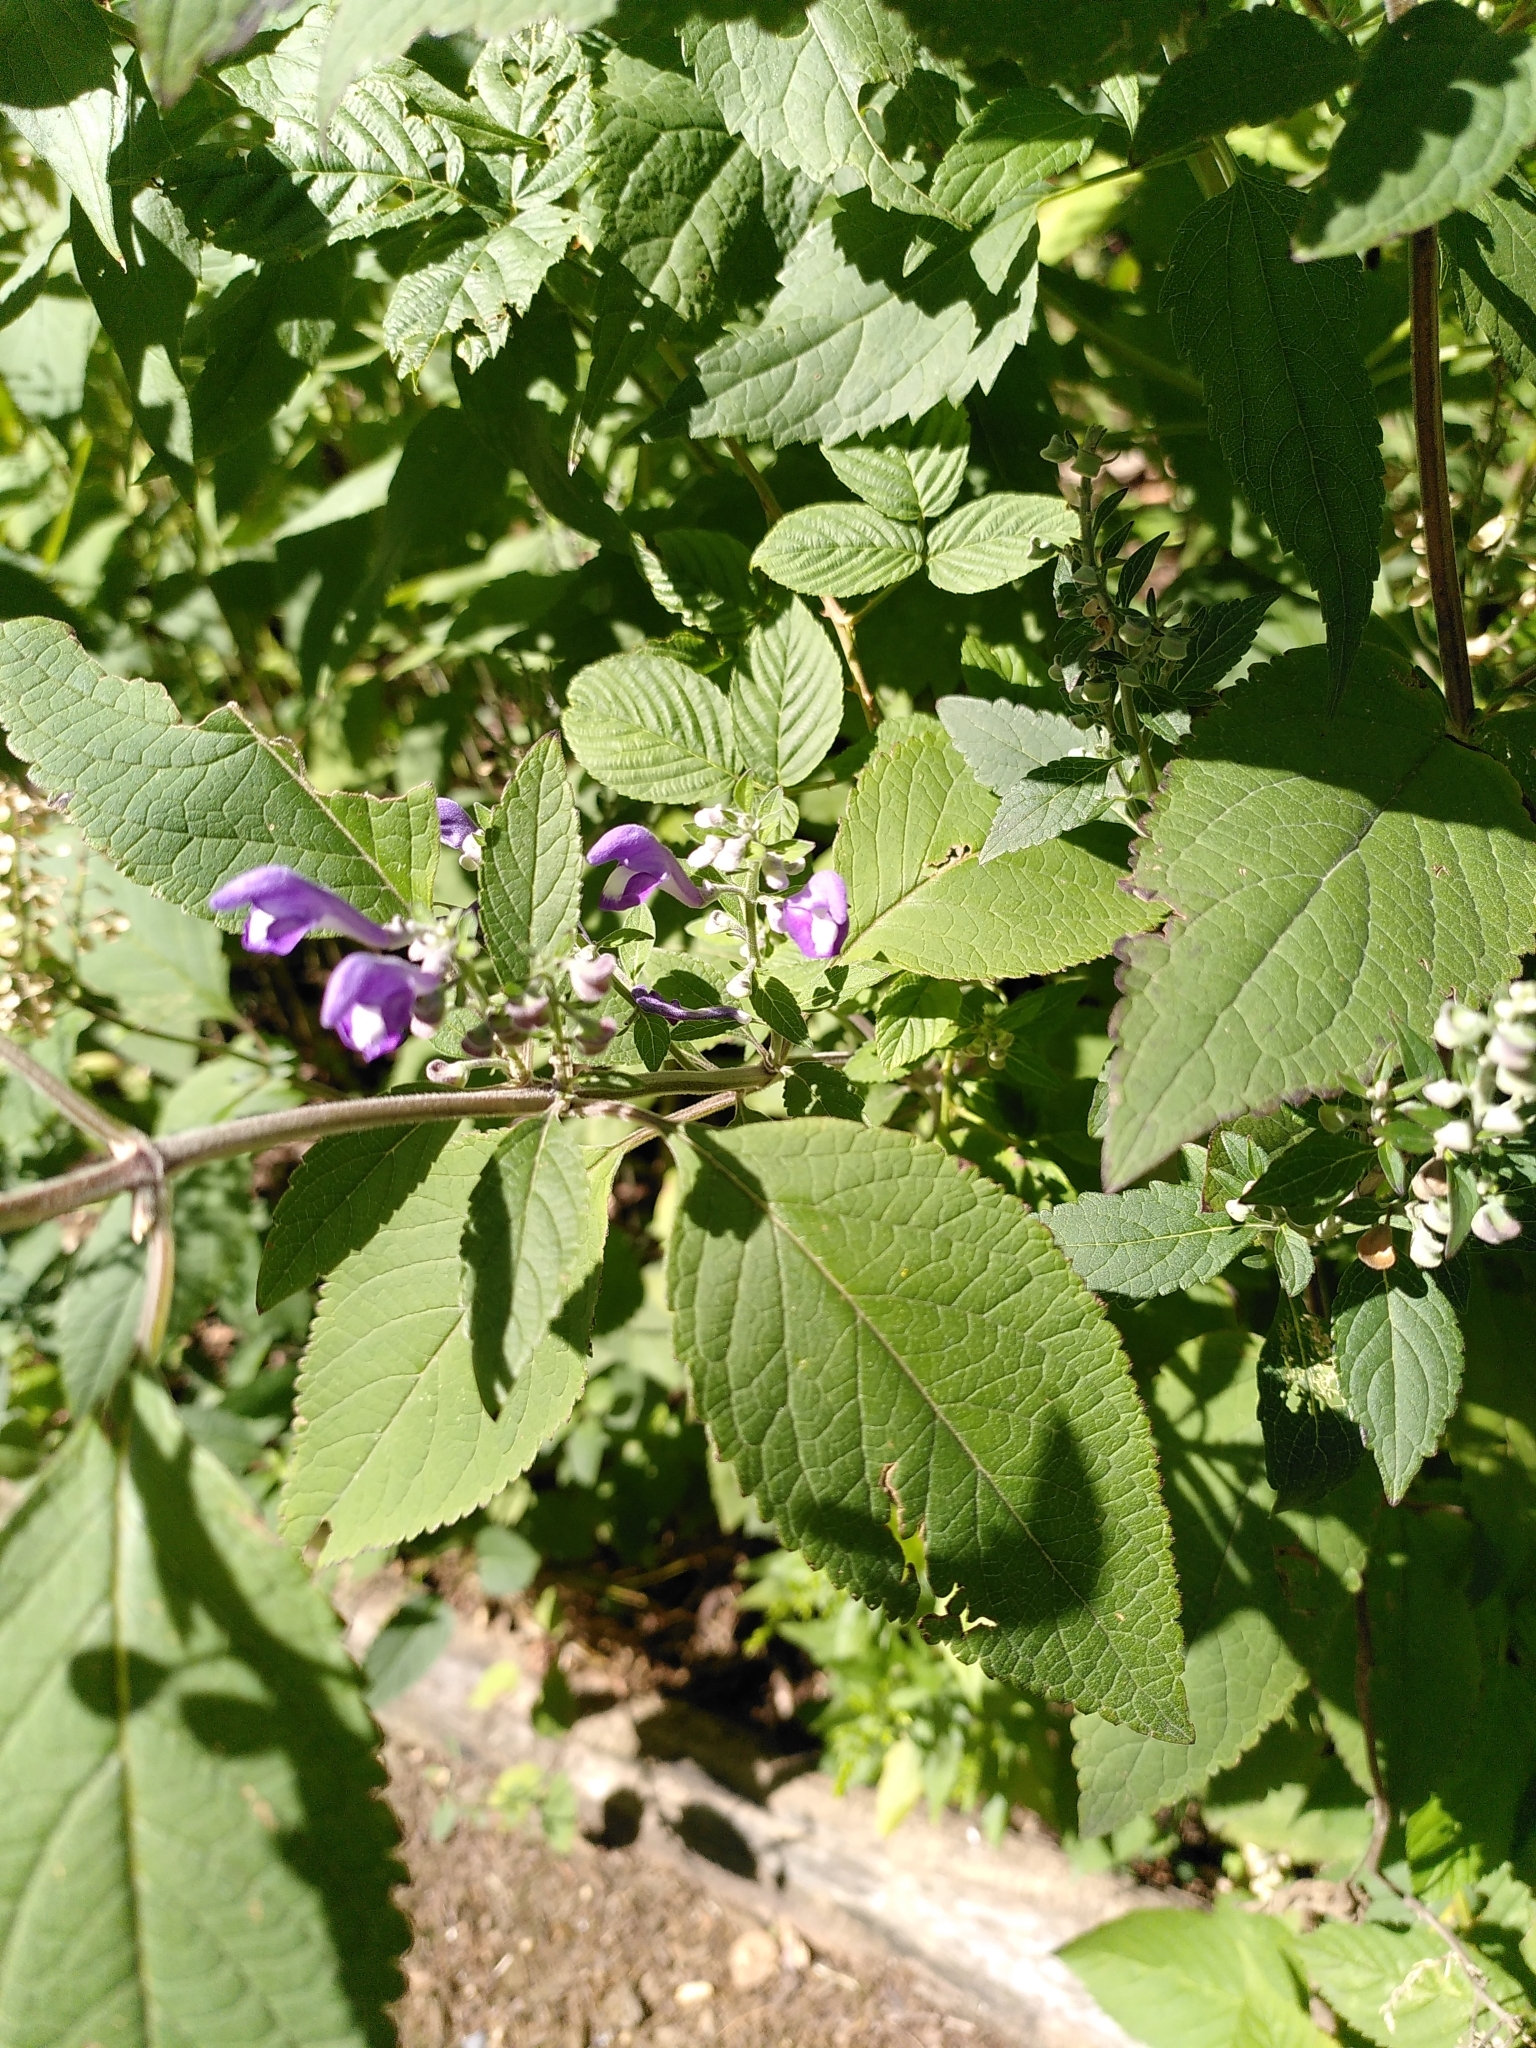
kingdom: Plantae
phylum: Tracheophyta
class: Magnoliopsida
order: Lamiales
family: Lamiaceae
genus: Scutellaria
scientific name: Scutellaria incana
